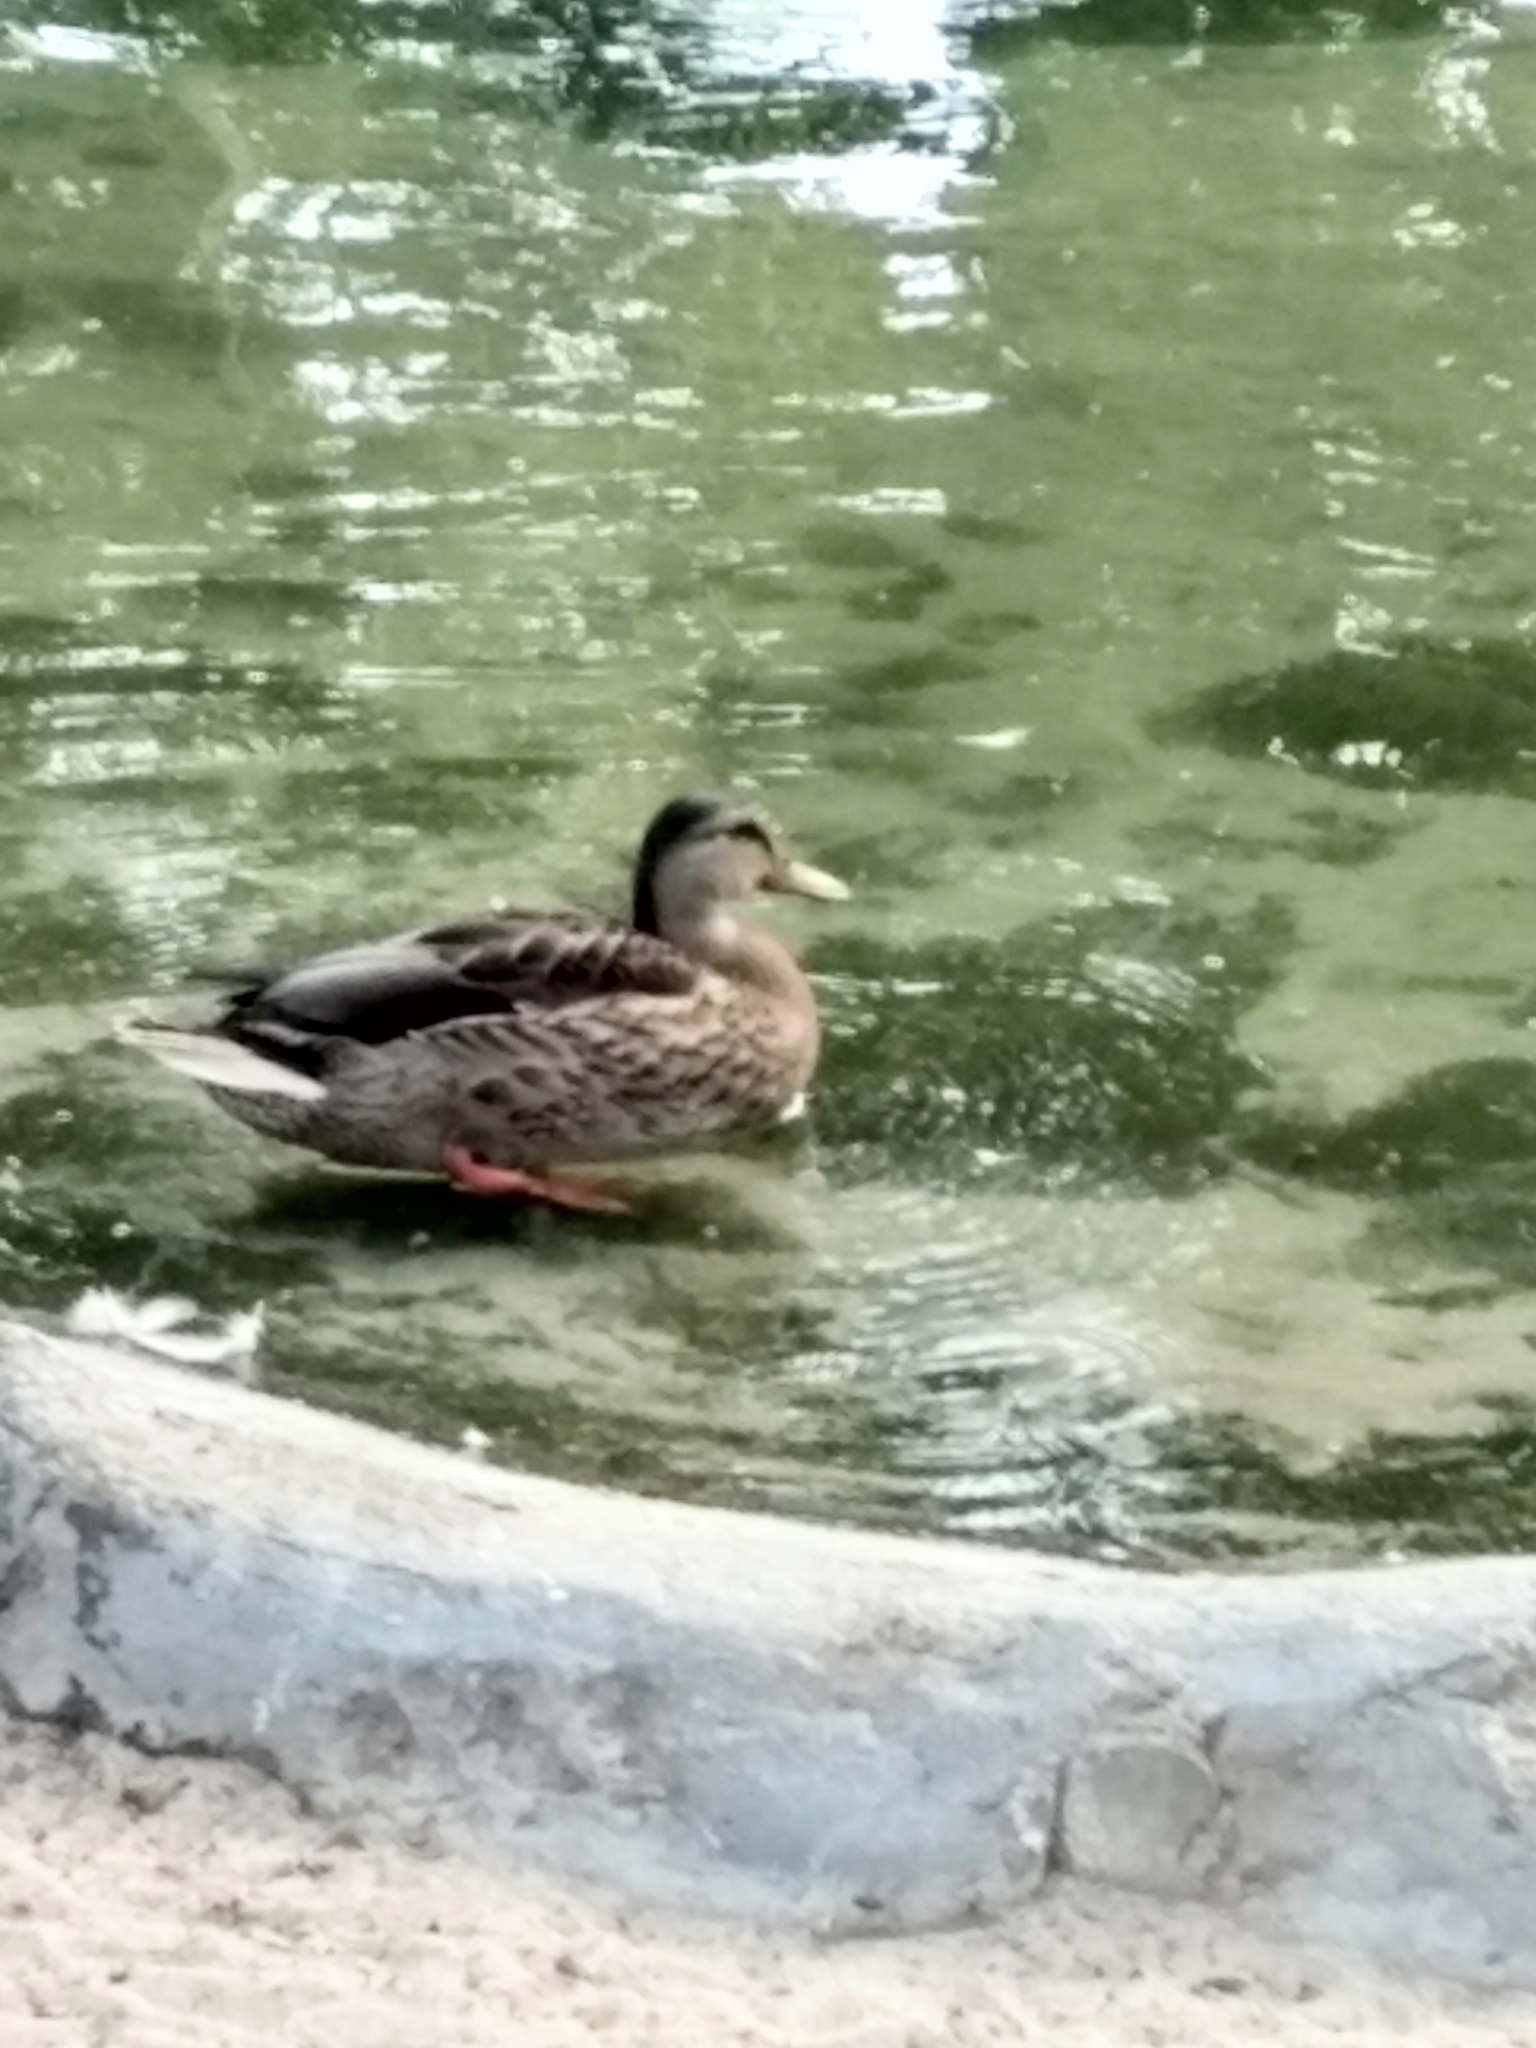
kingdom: Animalia
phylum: Chordata
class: Aves
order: Anseriformes
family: Anatidae
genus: Anas
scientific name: Anas platyrhynchos
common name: Mallard
